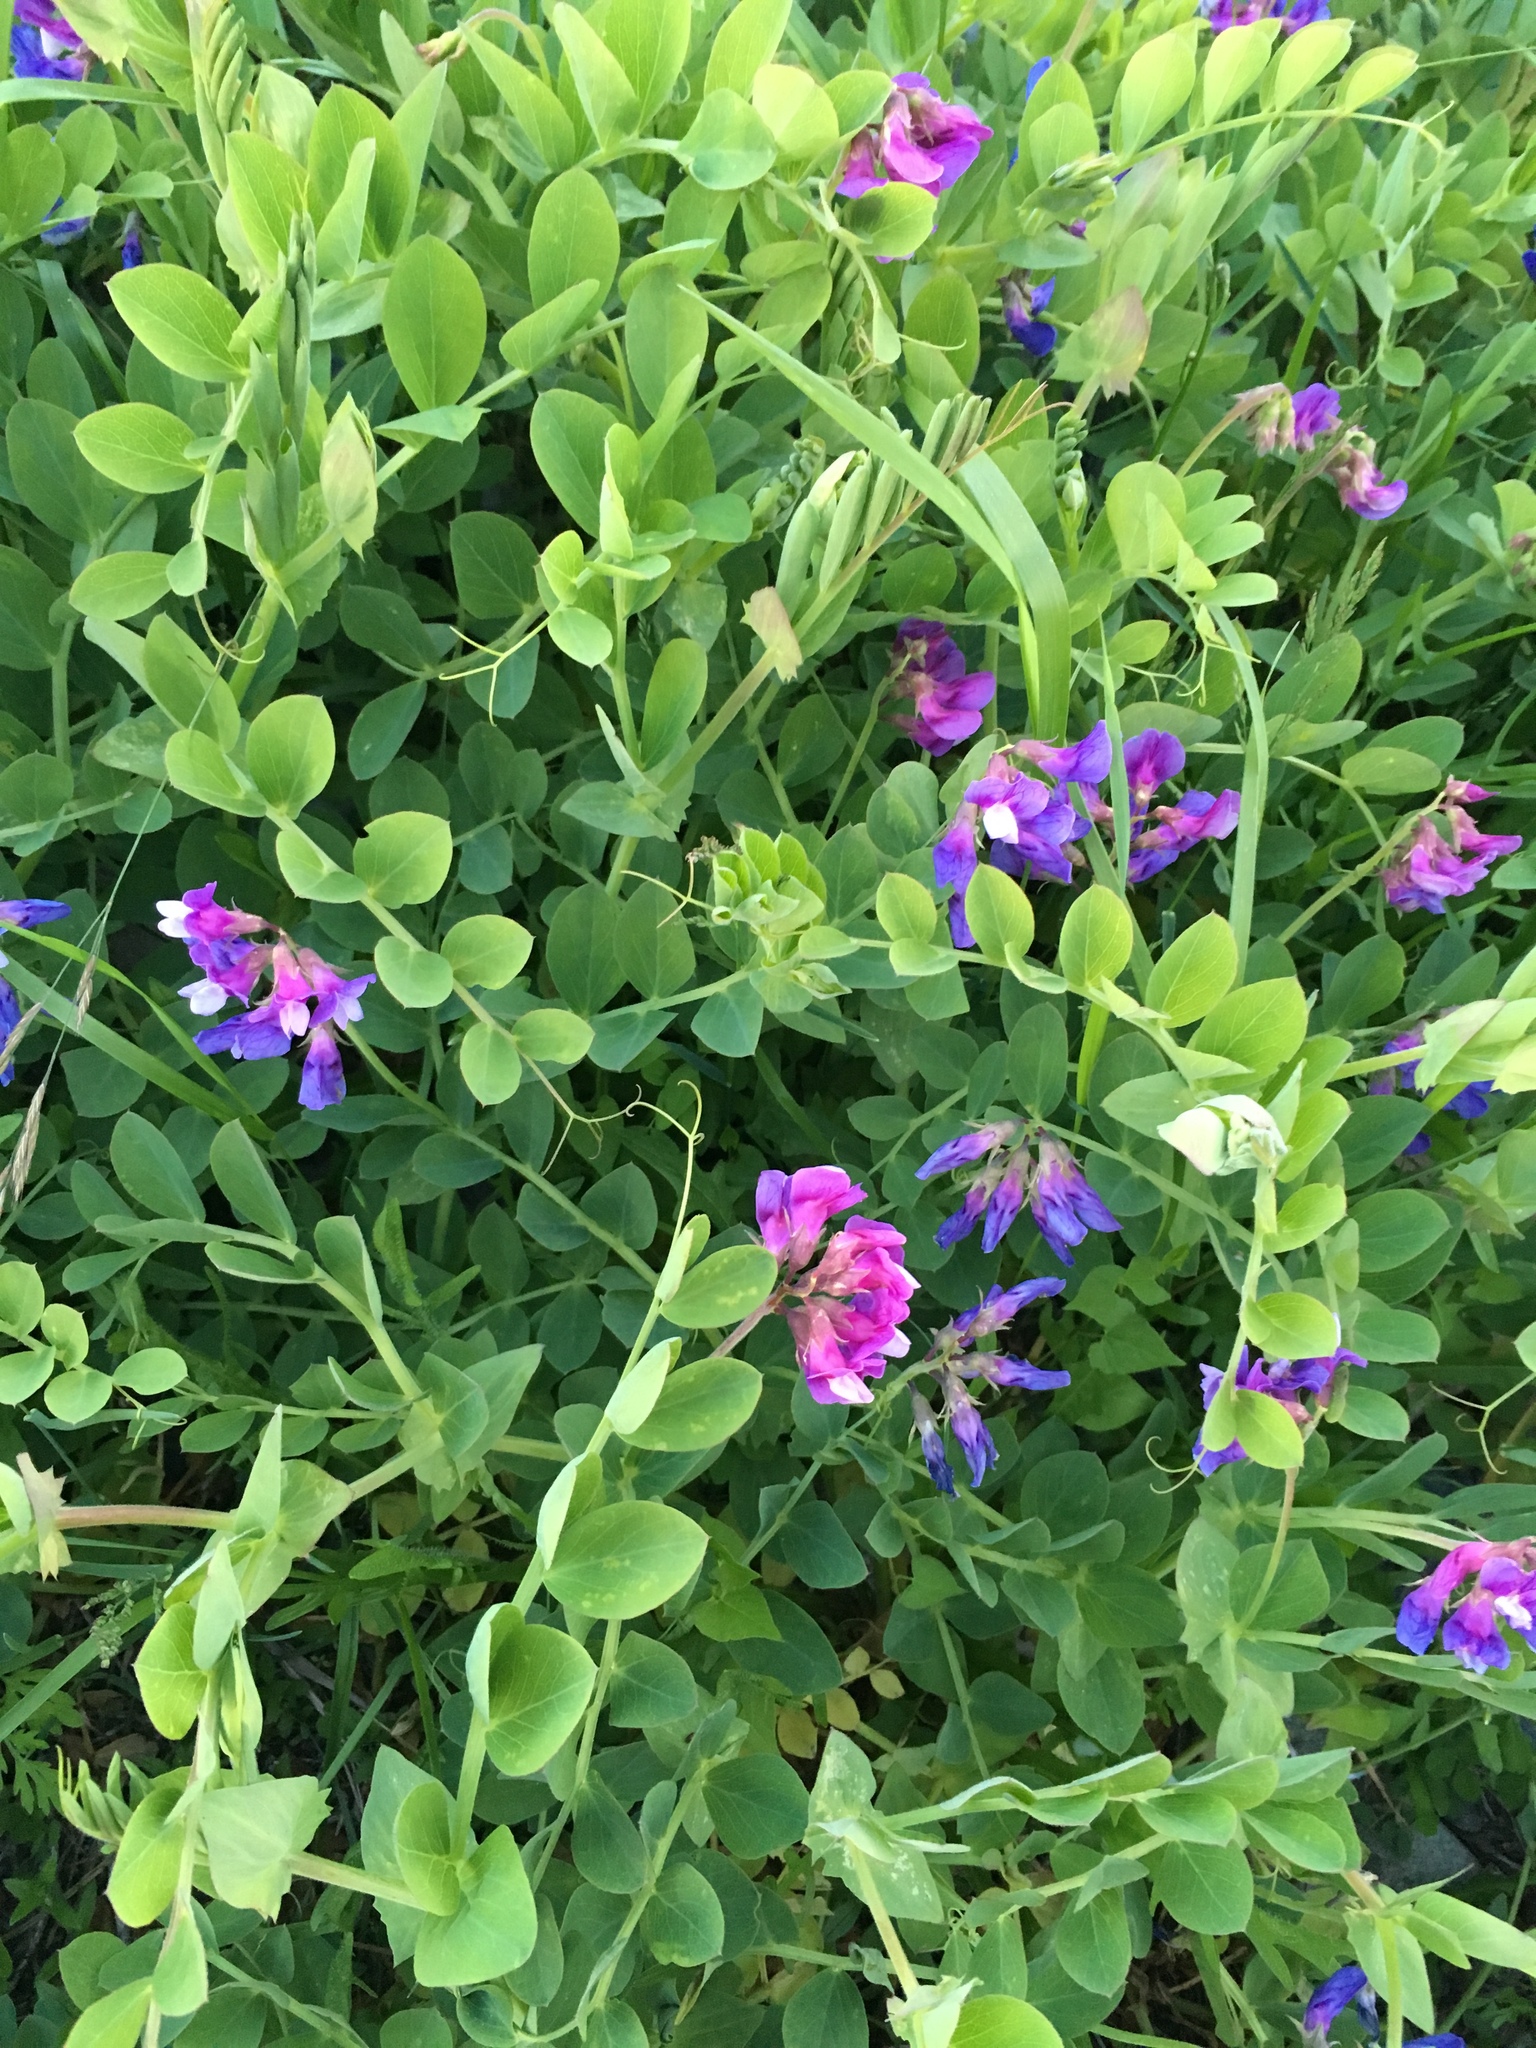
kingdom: Plantae
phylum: Tracheophyta
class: Magnoliopsida
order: Fabales
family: Fabaceae
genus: Lathyrus
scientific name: Lathyrus japonicus
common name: Sea pea
